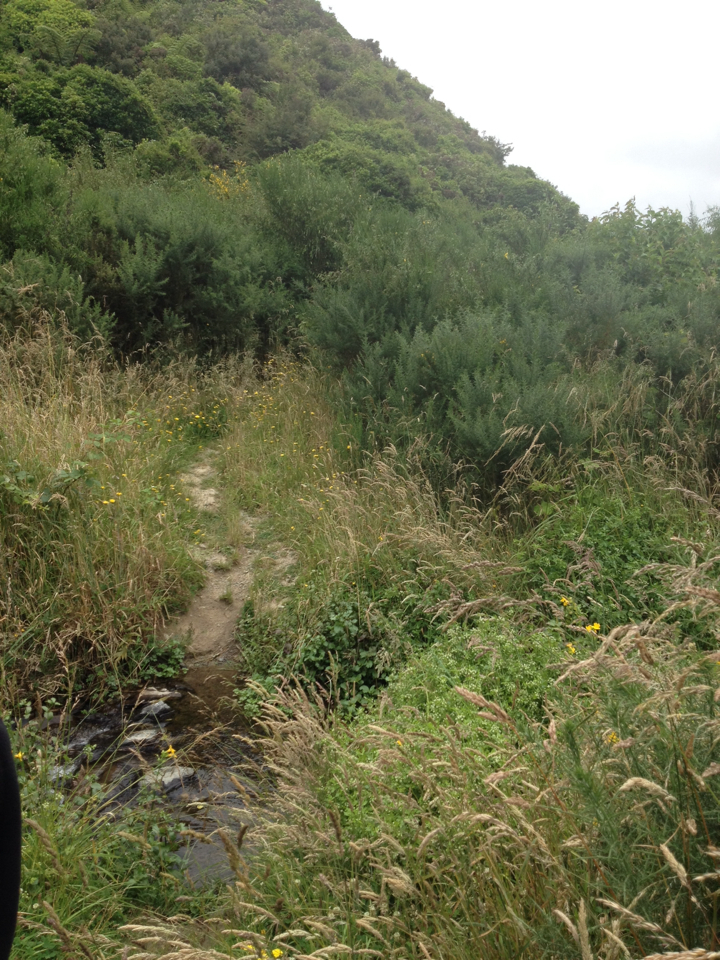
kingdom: Plantae
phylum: Tracheophyta
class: Magnoliopsida
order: Fabales
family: Fabaceae
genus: Ulex
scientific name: Ulex europaeus
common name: Common gorse
